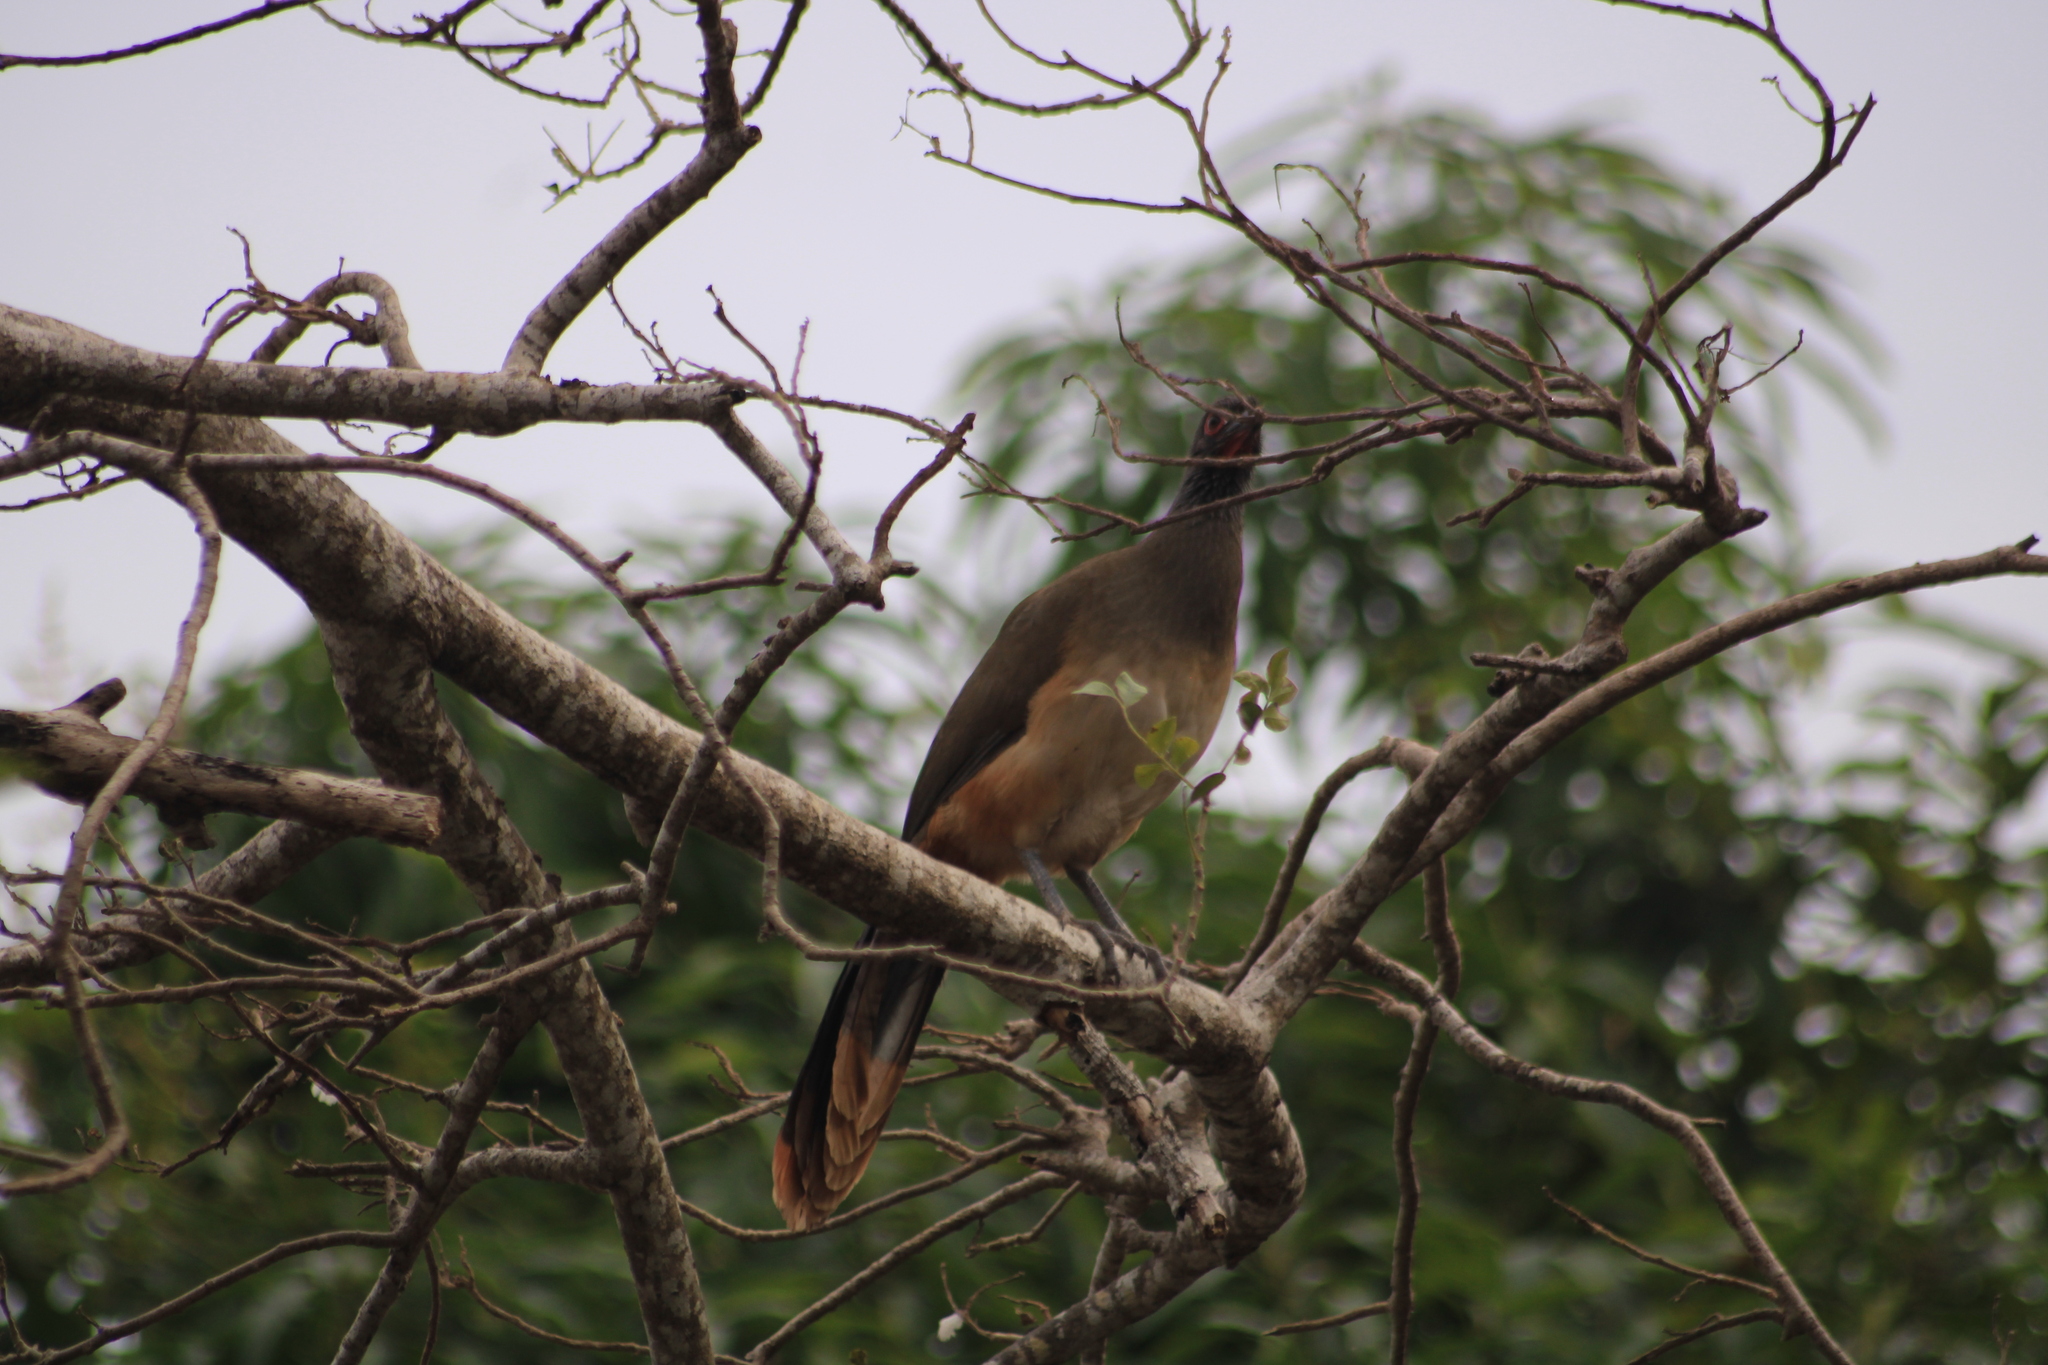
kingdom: Animalia
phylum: Chordata
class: Aves
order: Galliformes
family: Cracidae
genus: Ortalis
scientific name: Ortalis poliocephala
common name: West mexican chachalaca
